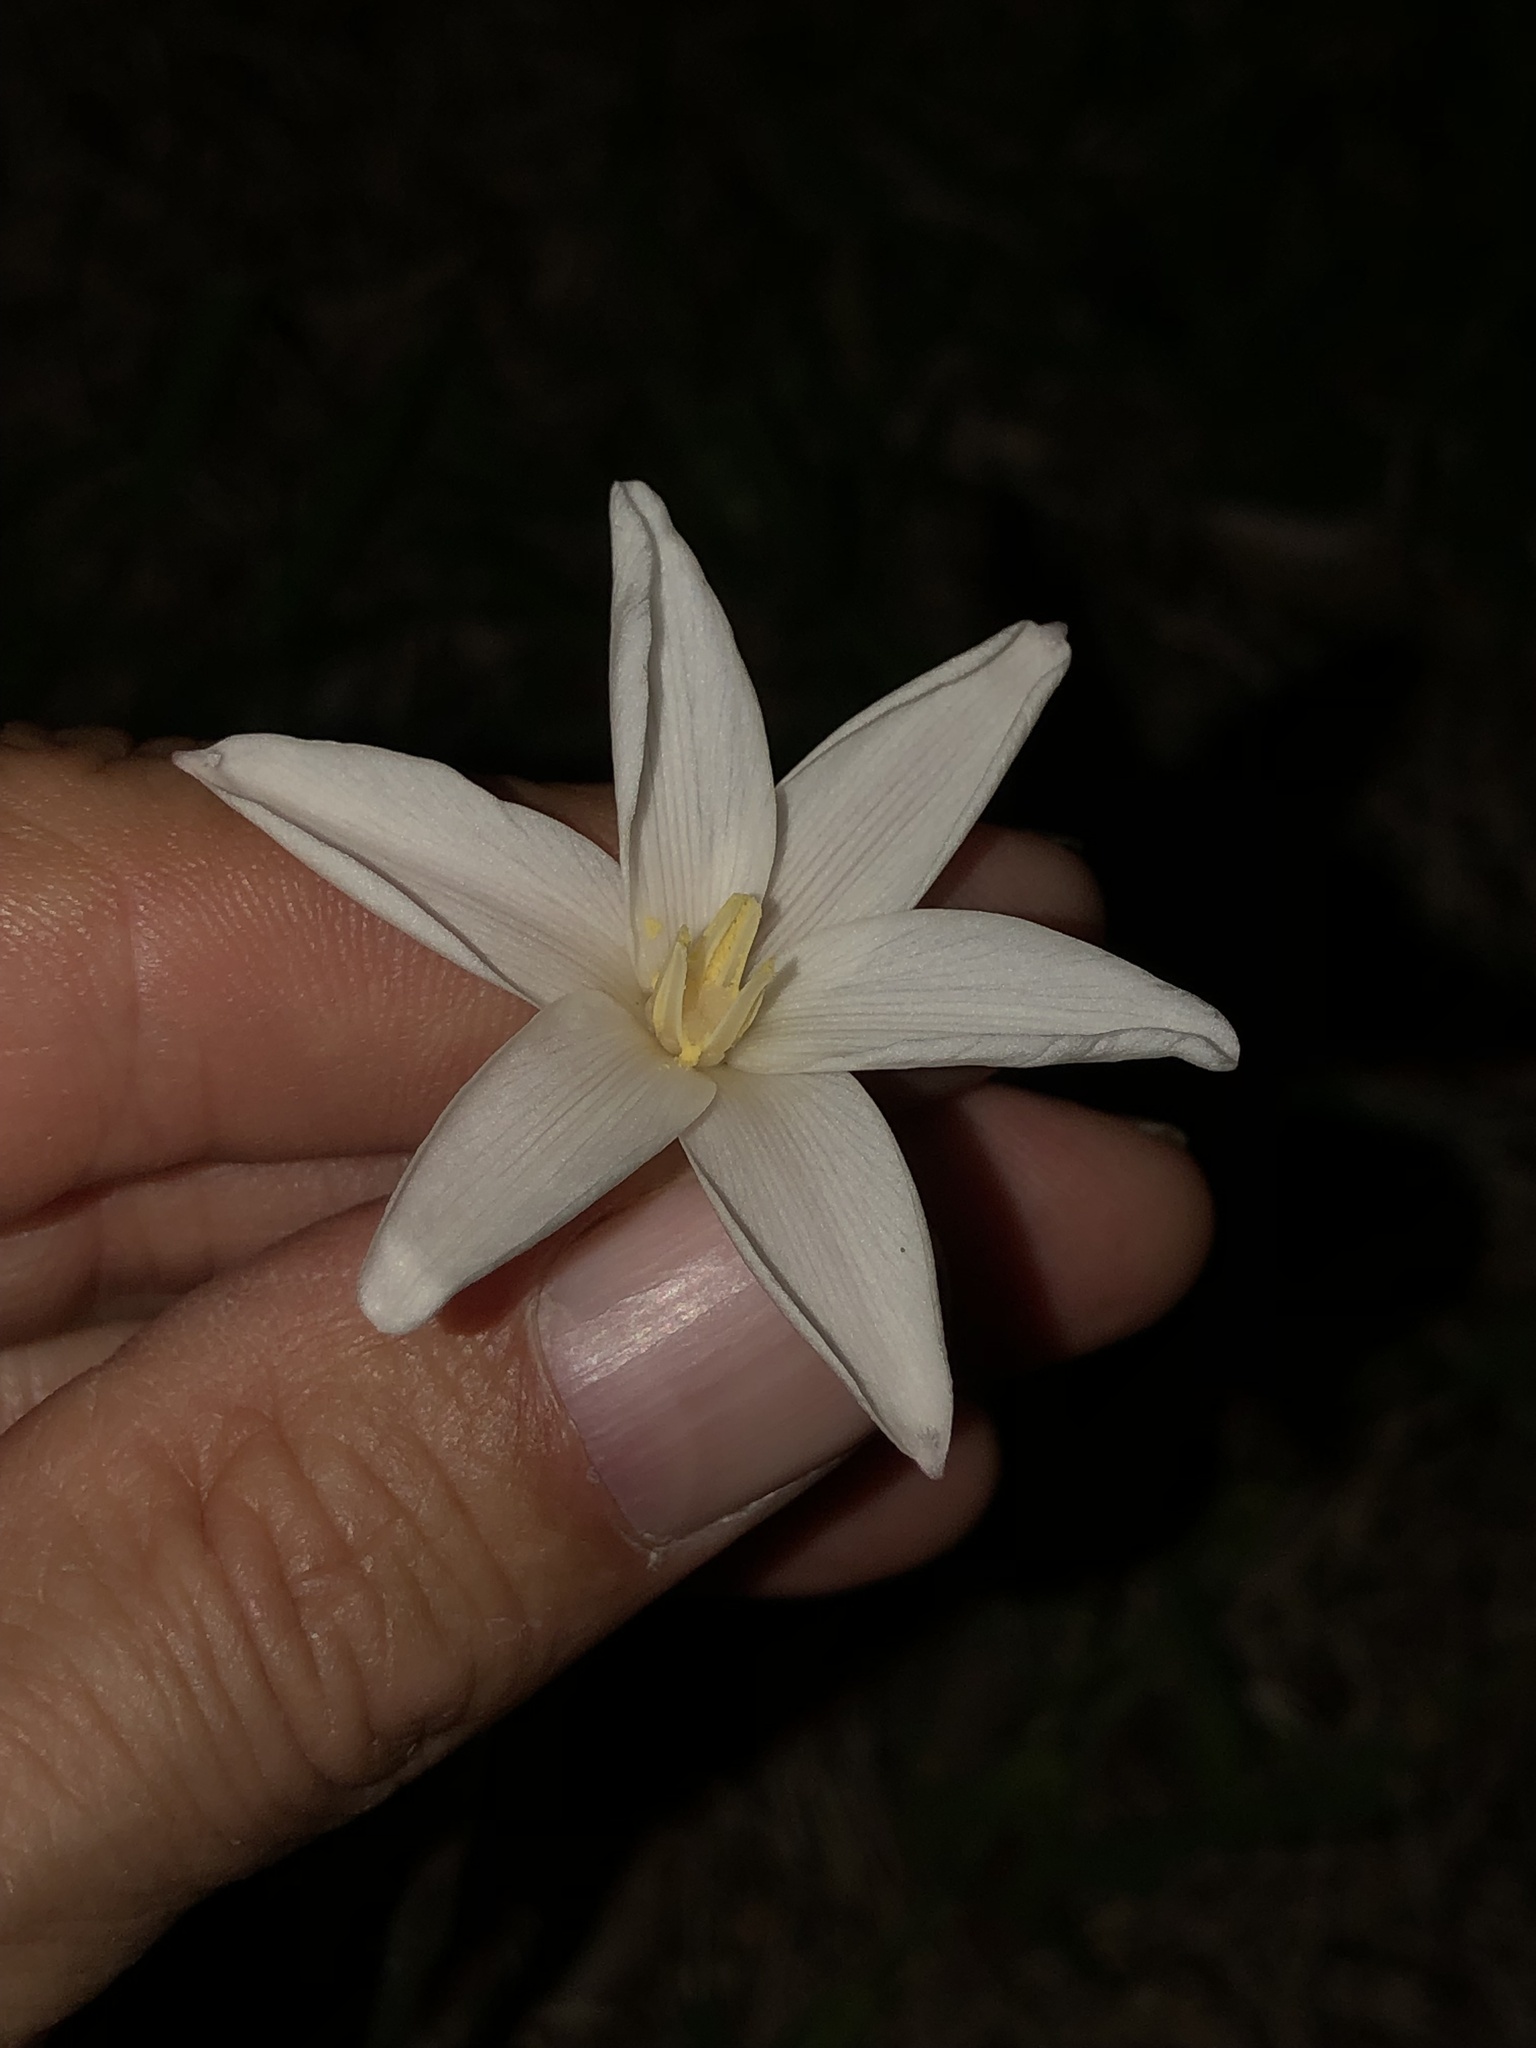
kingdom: Plantae
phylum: Tracheophyta
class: Liliopsida
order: Asparagales
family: Amaryllidaceae
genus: Zephyranthes
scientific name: Zephyranthes chlorosolen
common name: Evening rain-lily
